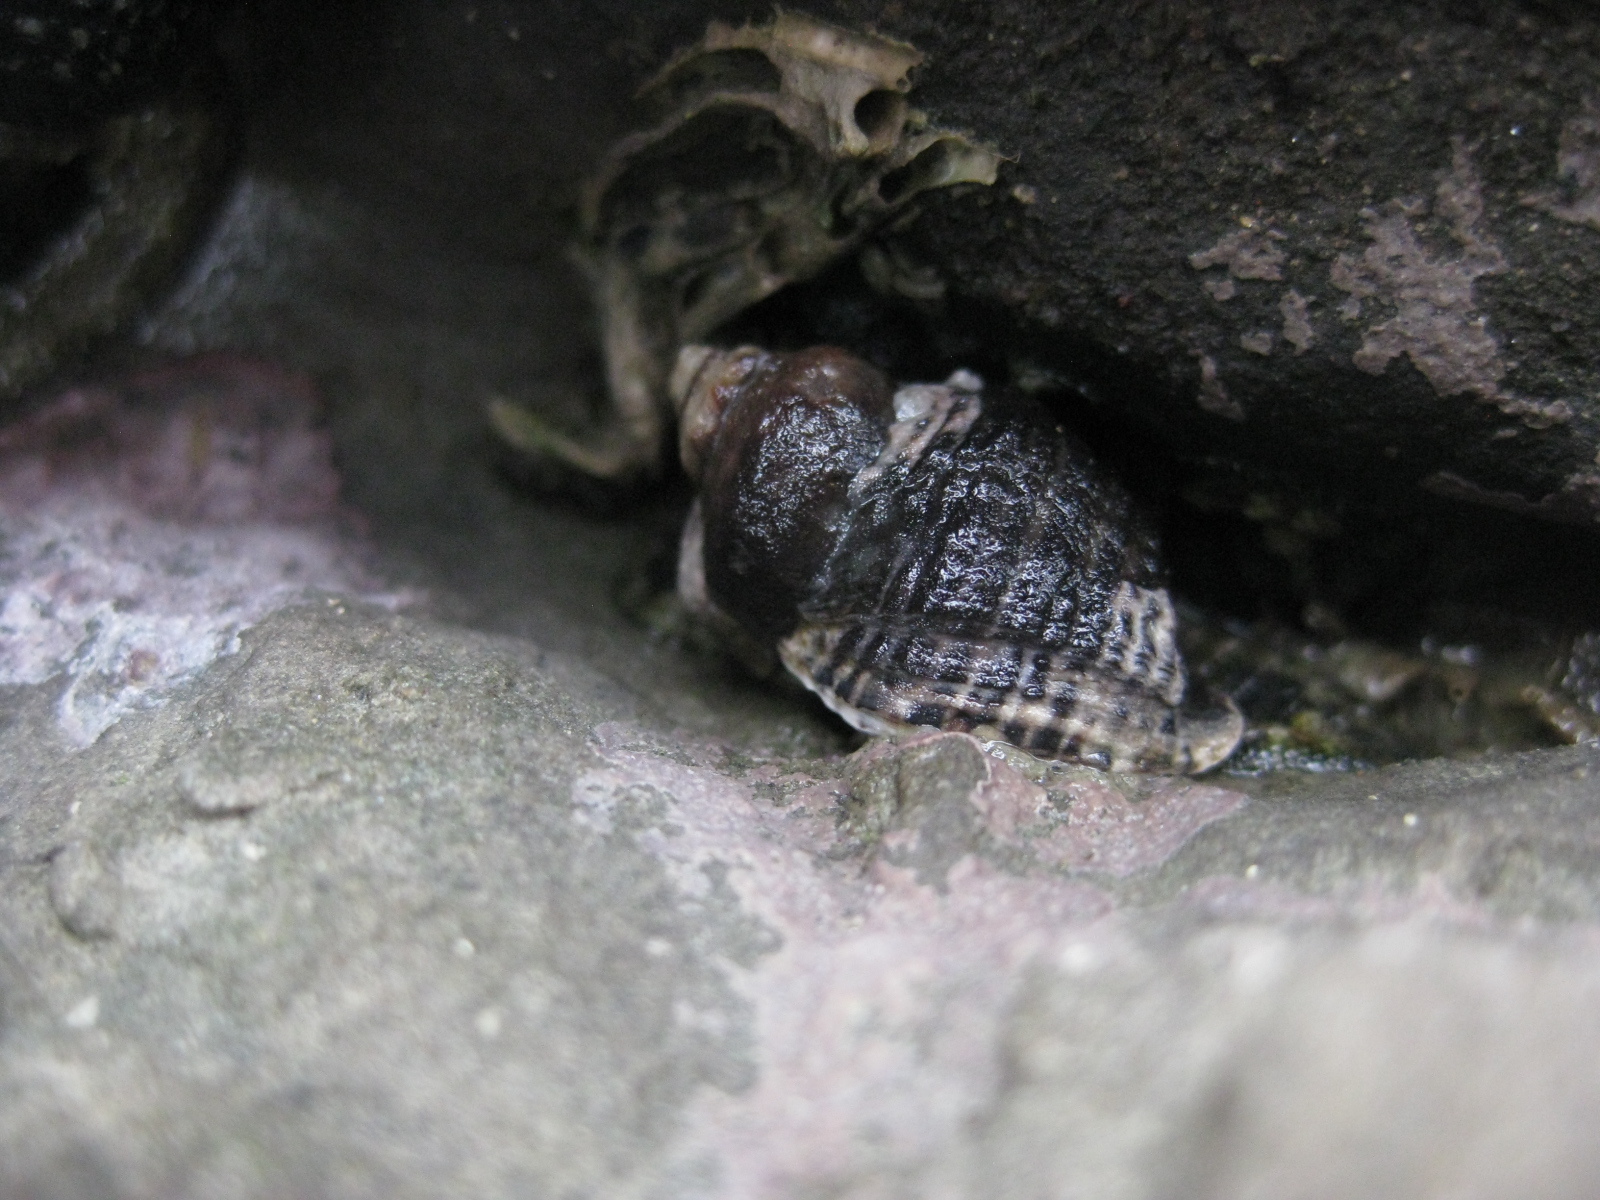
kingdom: Animalia
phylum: Mollusca
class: Gastropoda
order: Neogastropoda
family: Muricidae
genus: Haustrum
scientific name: Haustrum scobina
